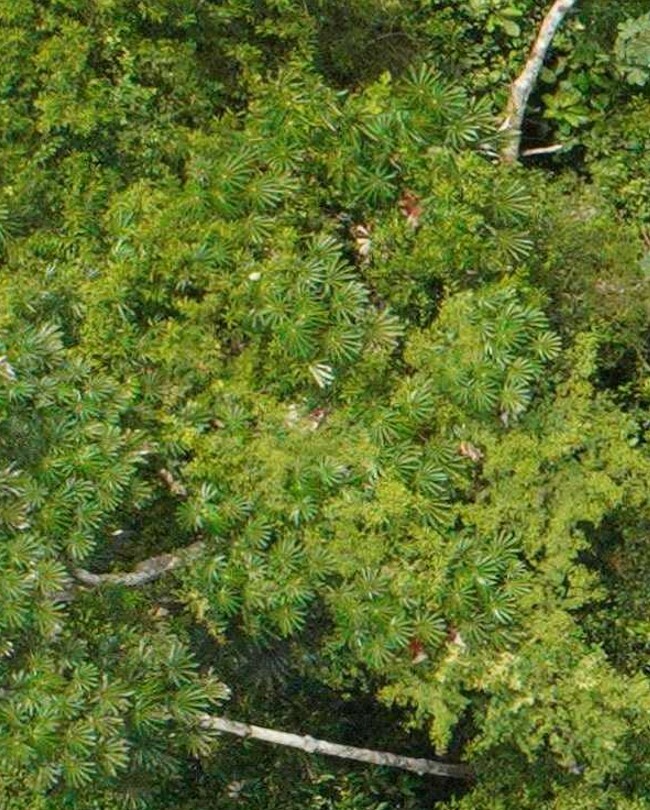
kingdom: Plantae
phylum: Tracheophyta
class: Magnoliopsida
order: Rosales
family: Urticaceae
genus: Cecropia
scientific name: Cecropia sciadophylla
